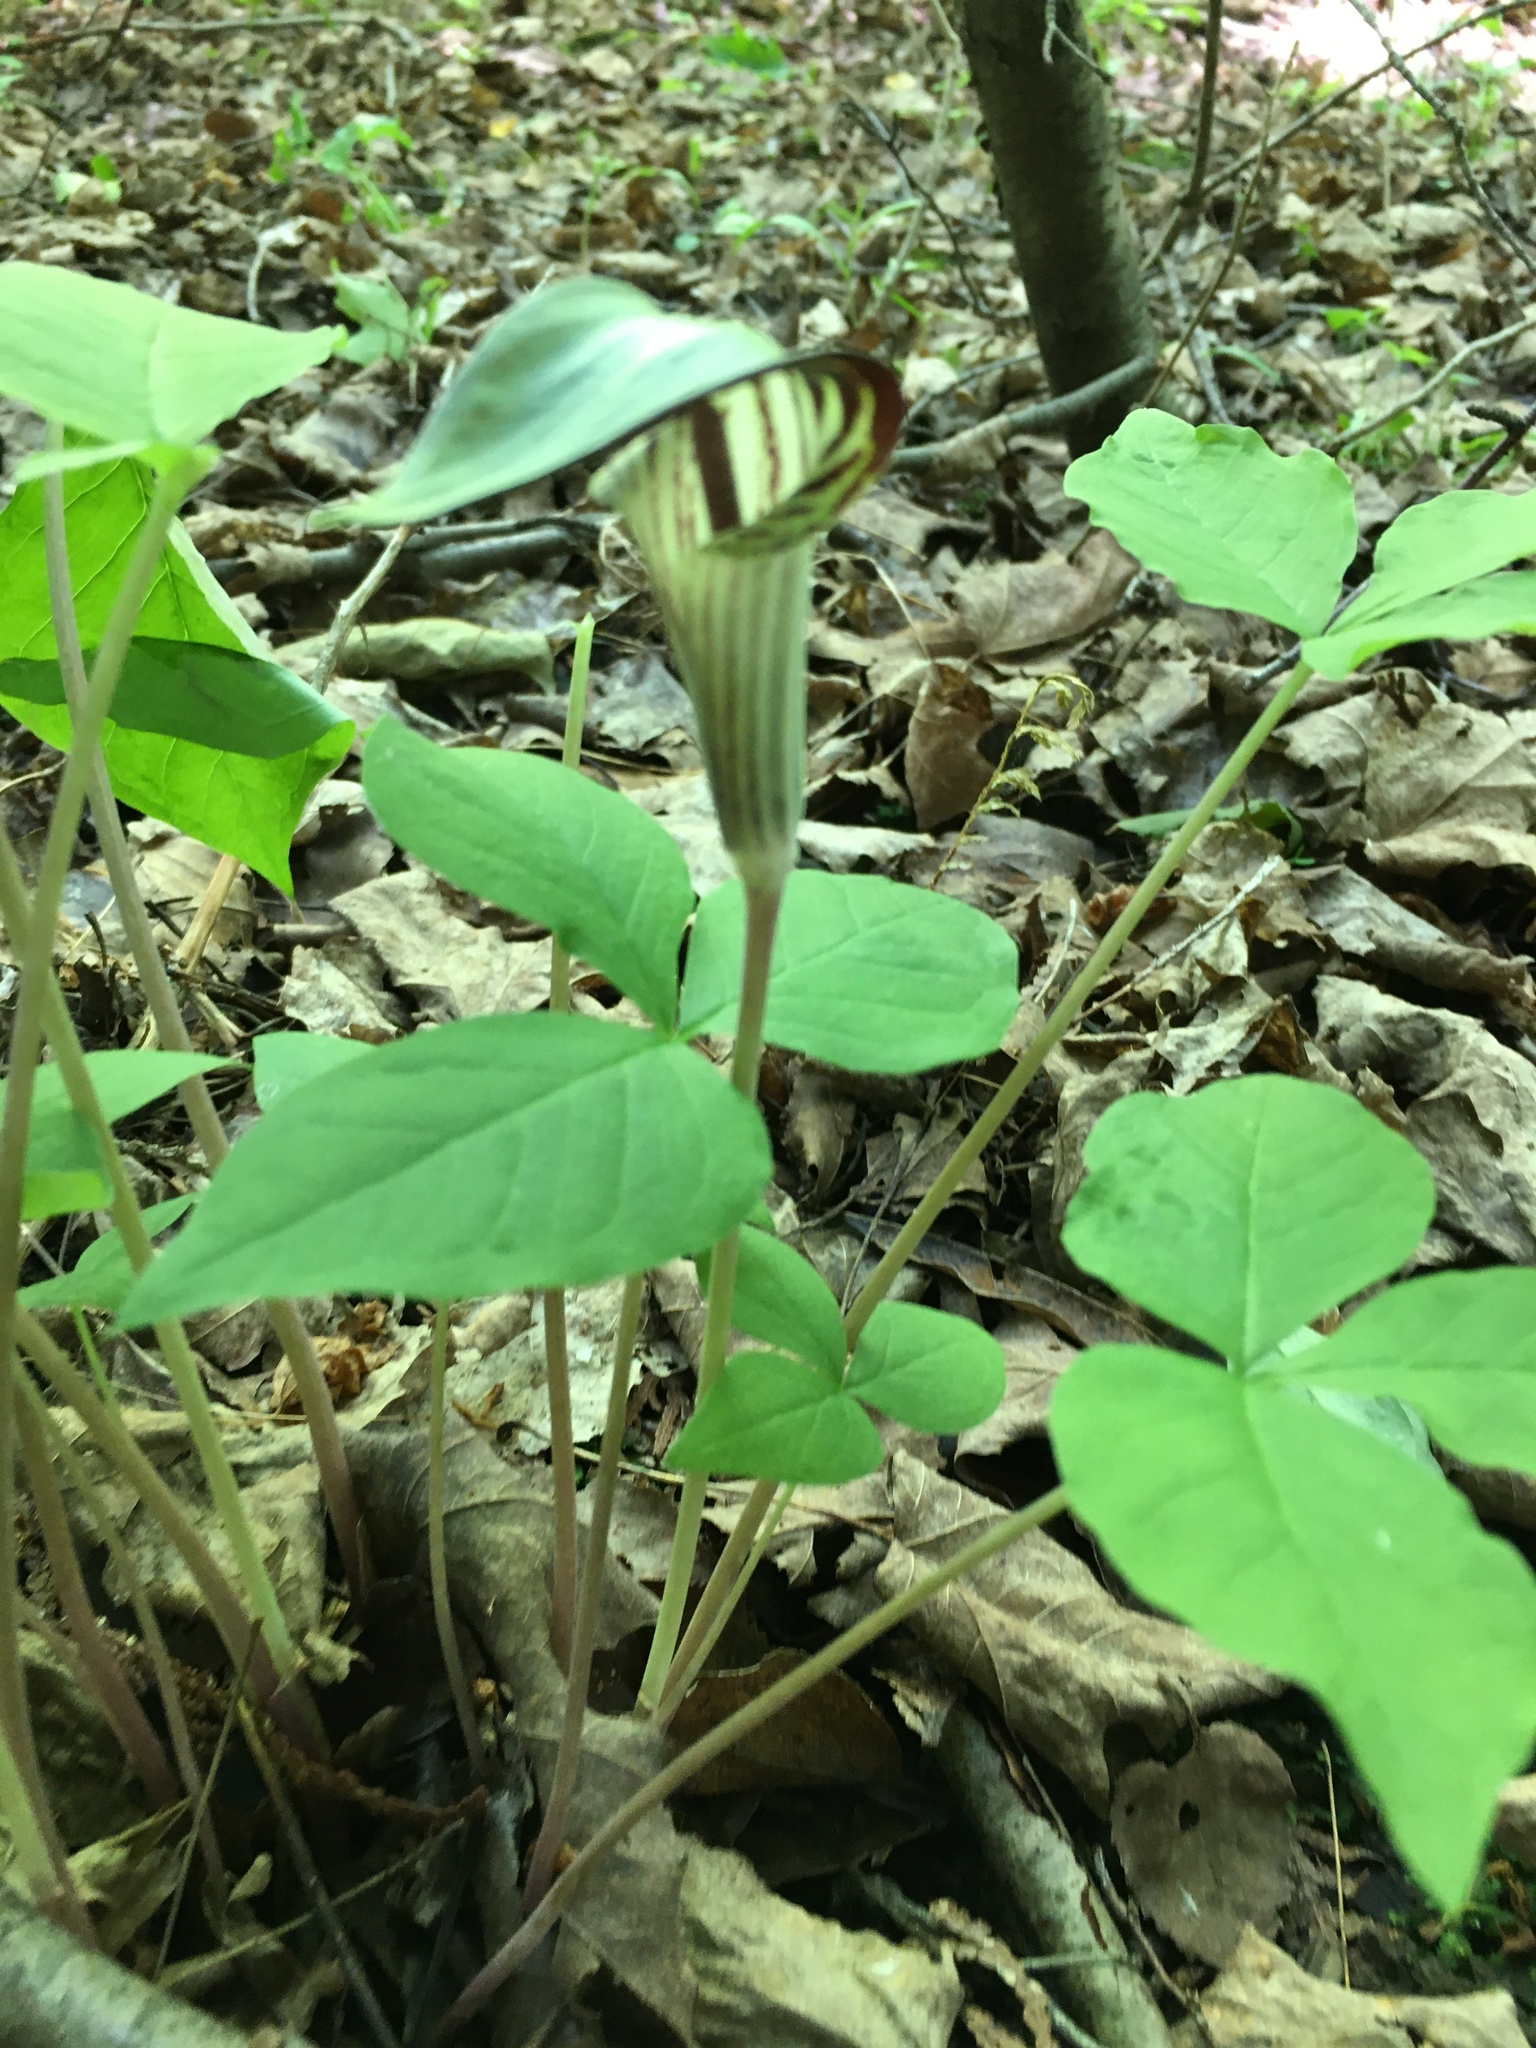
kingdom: Plantae
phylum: Tracheophyta
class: Liliopsida
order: Alismatales
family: Araceae
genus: Arisaema
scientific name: Arisaema triphyllum
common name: Jack-in-the-pulpit
